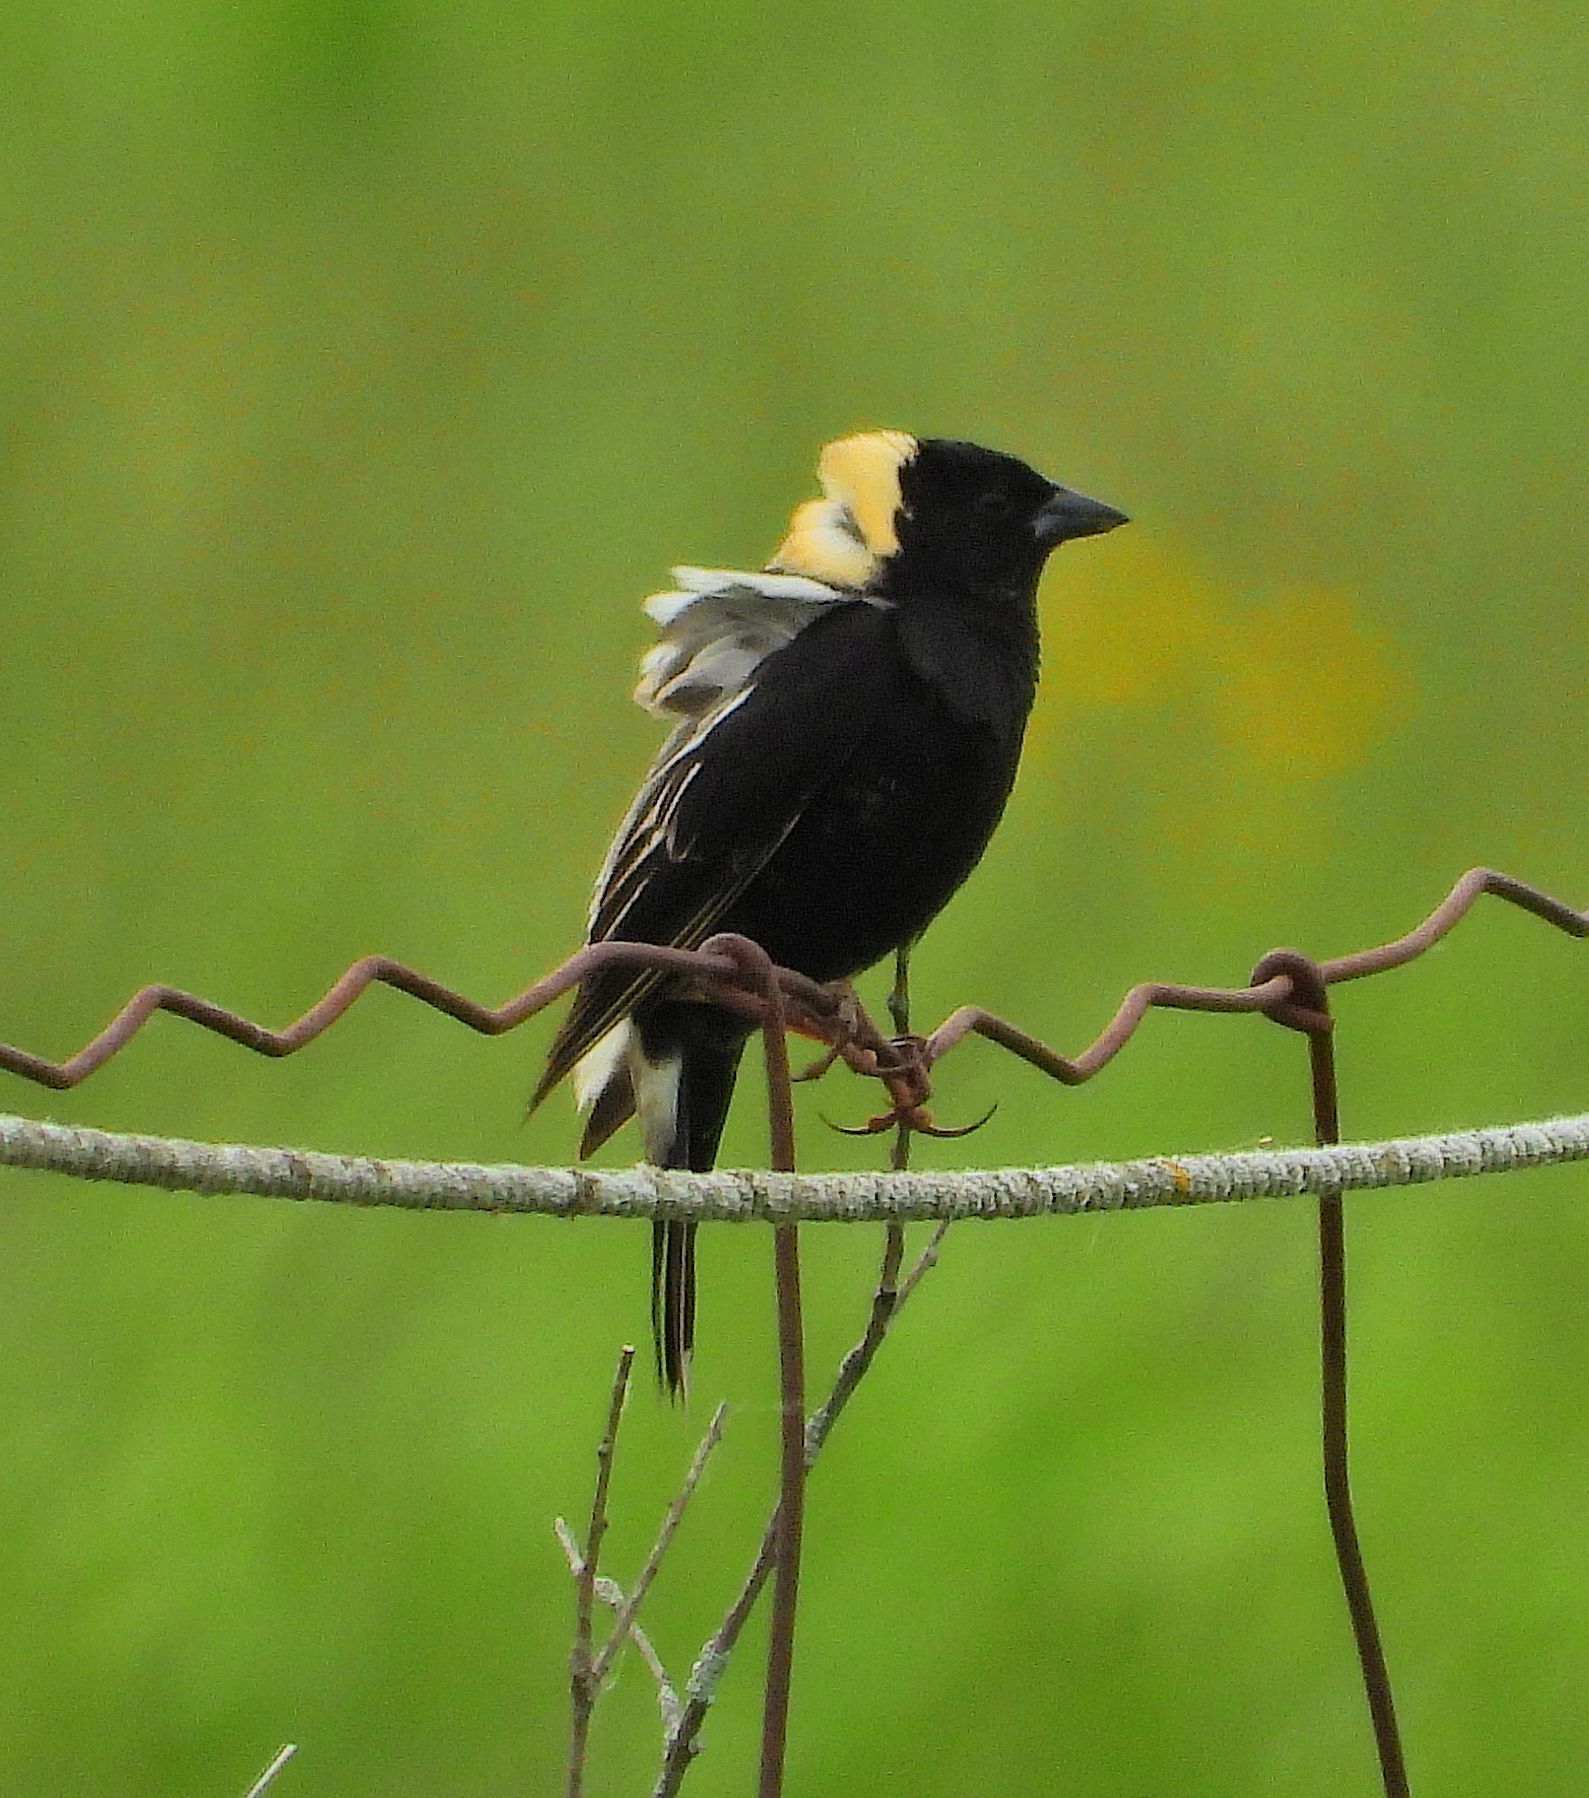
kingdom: Animalia
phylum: Chordata
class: Aves
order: Passeriformes
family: Icteridae
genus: Dolichonyx
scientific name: Dolichonyx oryzivorus
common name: Bobolink
